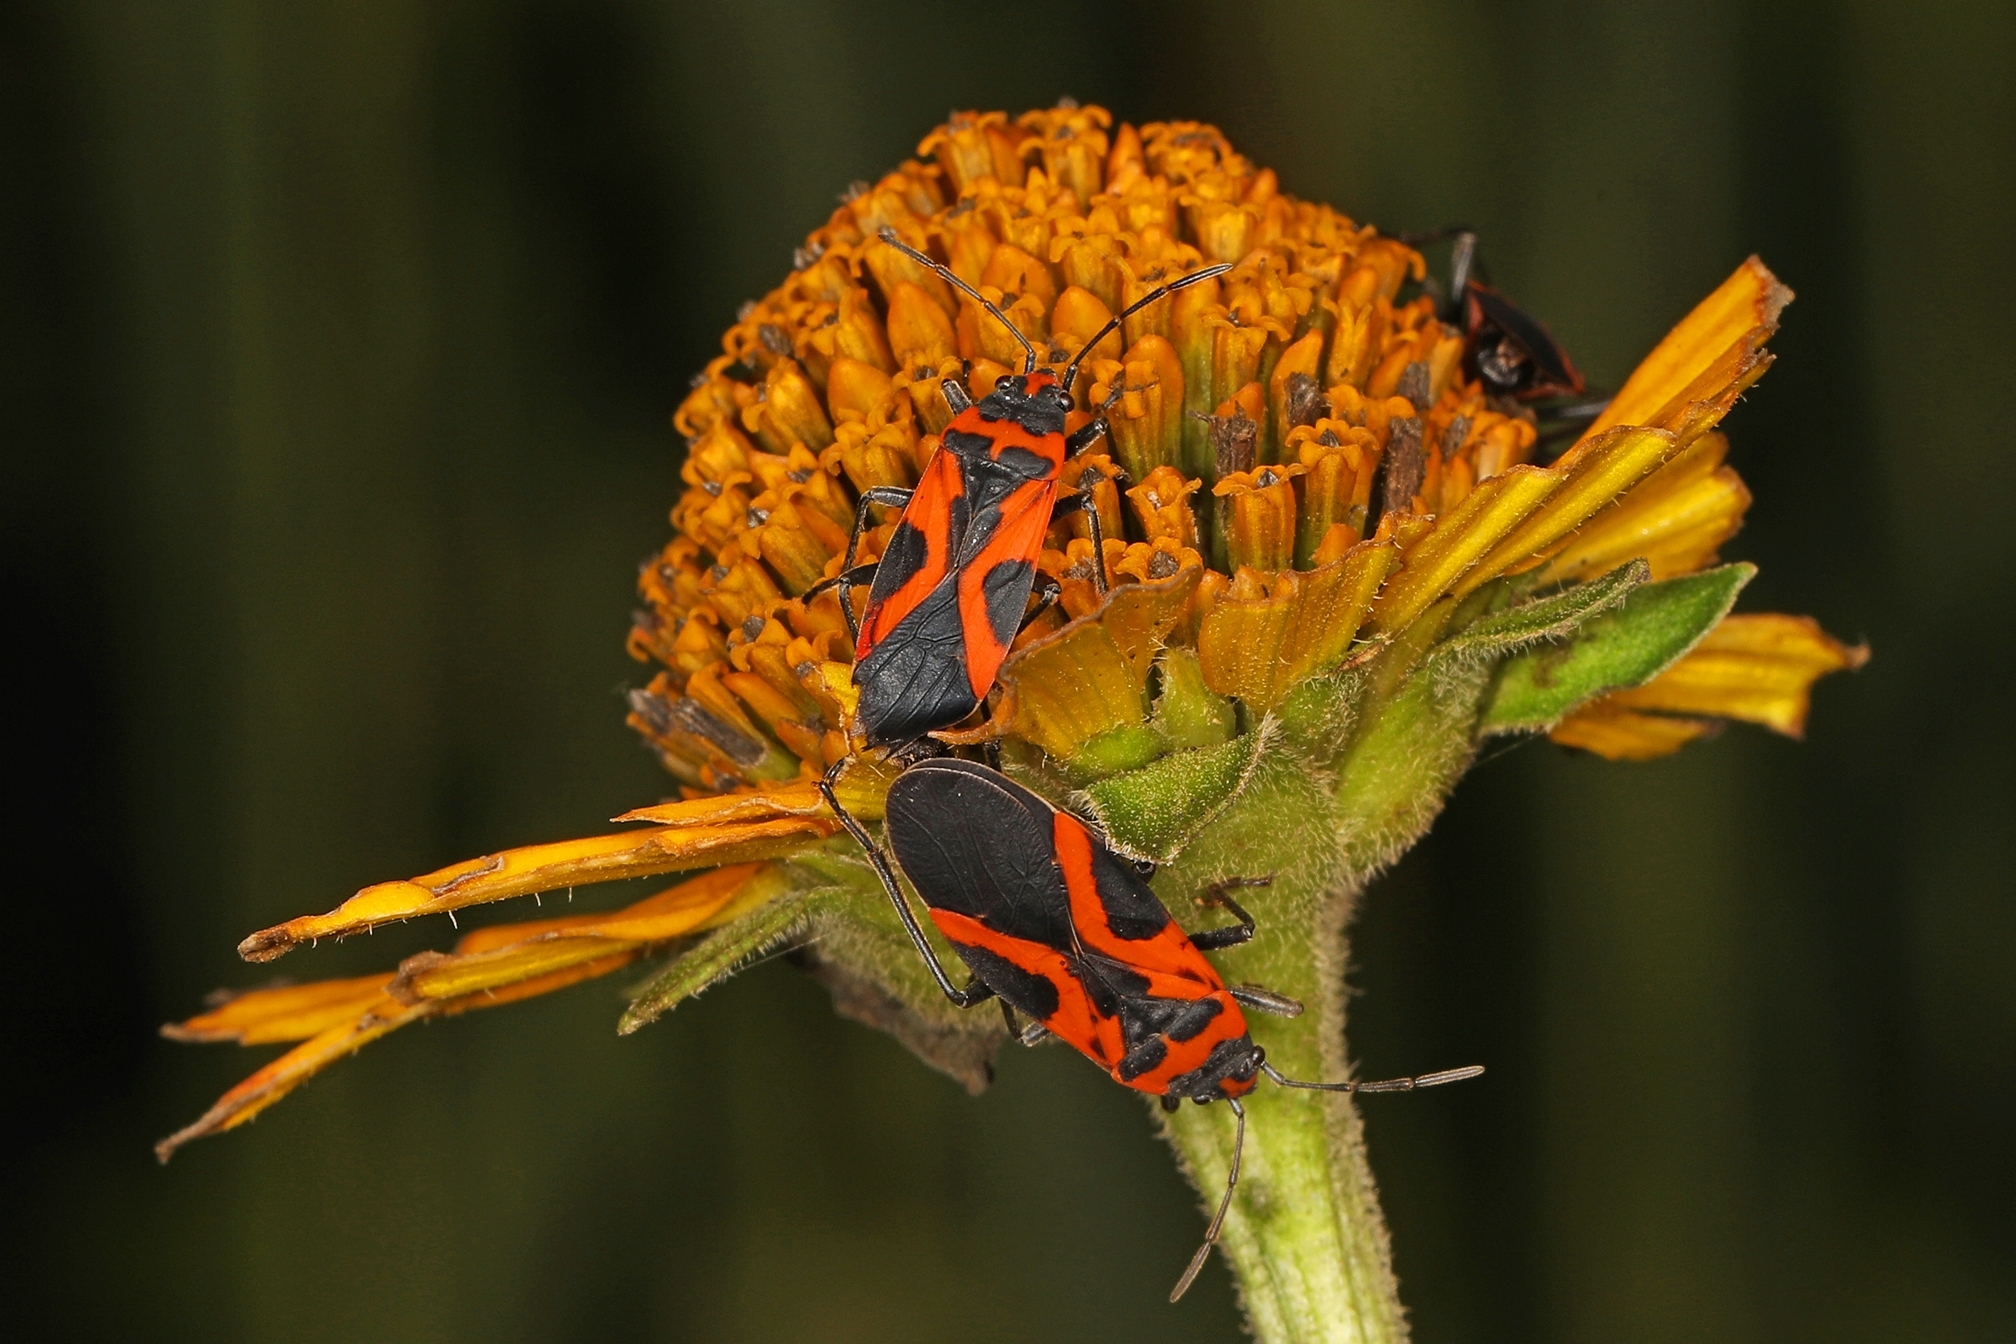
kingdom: Animalia
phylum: Arthropoda
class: Insecta
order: Hemiptera
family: Lygaeidae
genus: Lygaeus
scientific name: Lygaeus turcicus
